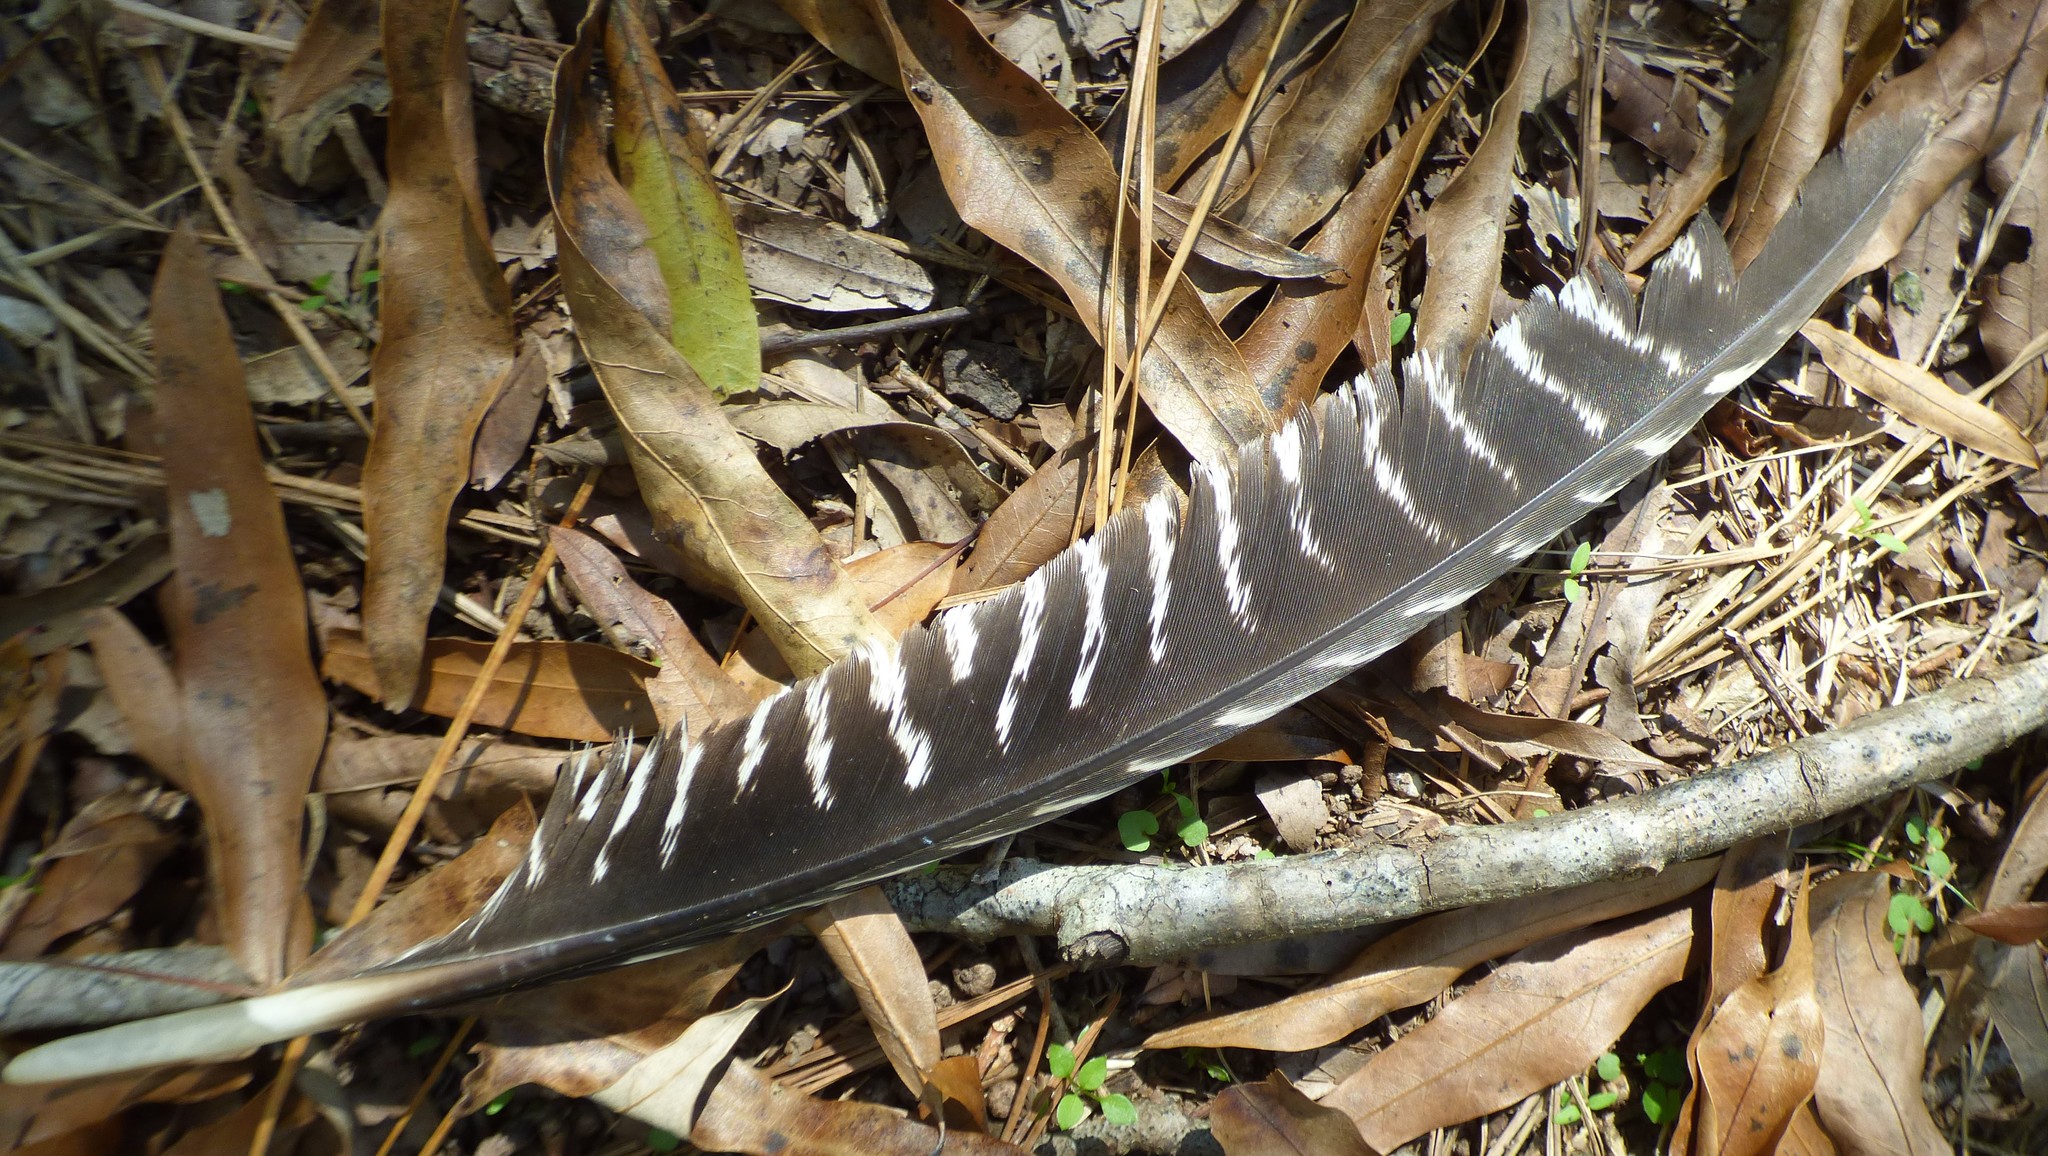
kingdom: Animalia
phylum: Chordata
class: Aves
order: Galliformes
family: Phasianidae
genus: Meleagris
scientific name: Meleagris gallopavo
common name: Wild turkey
